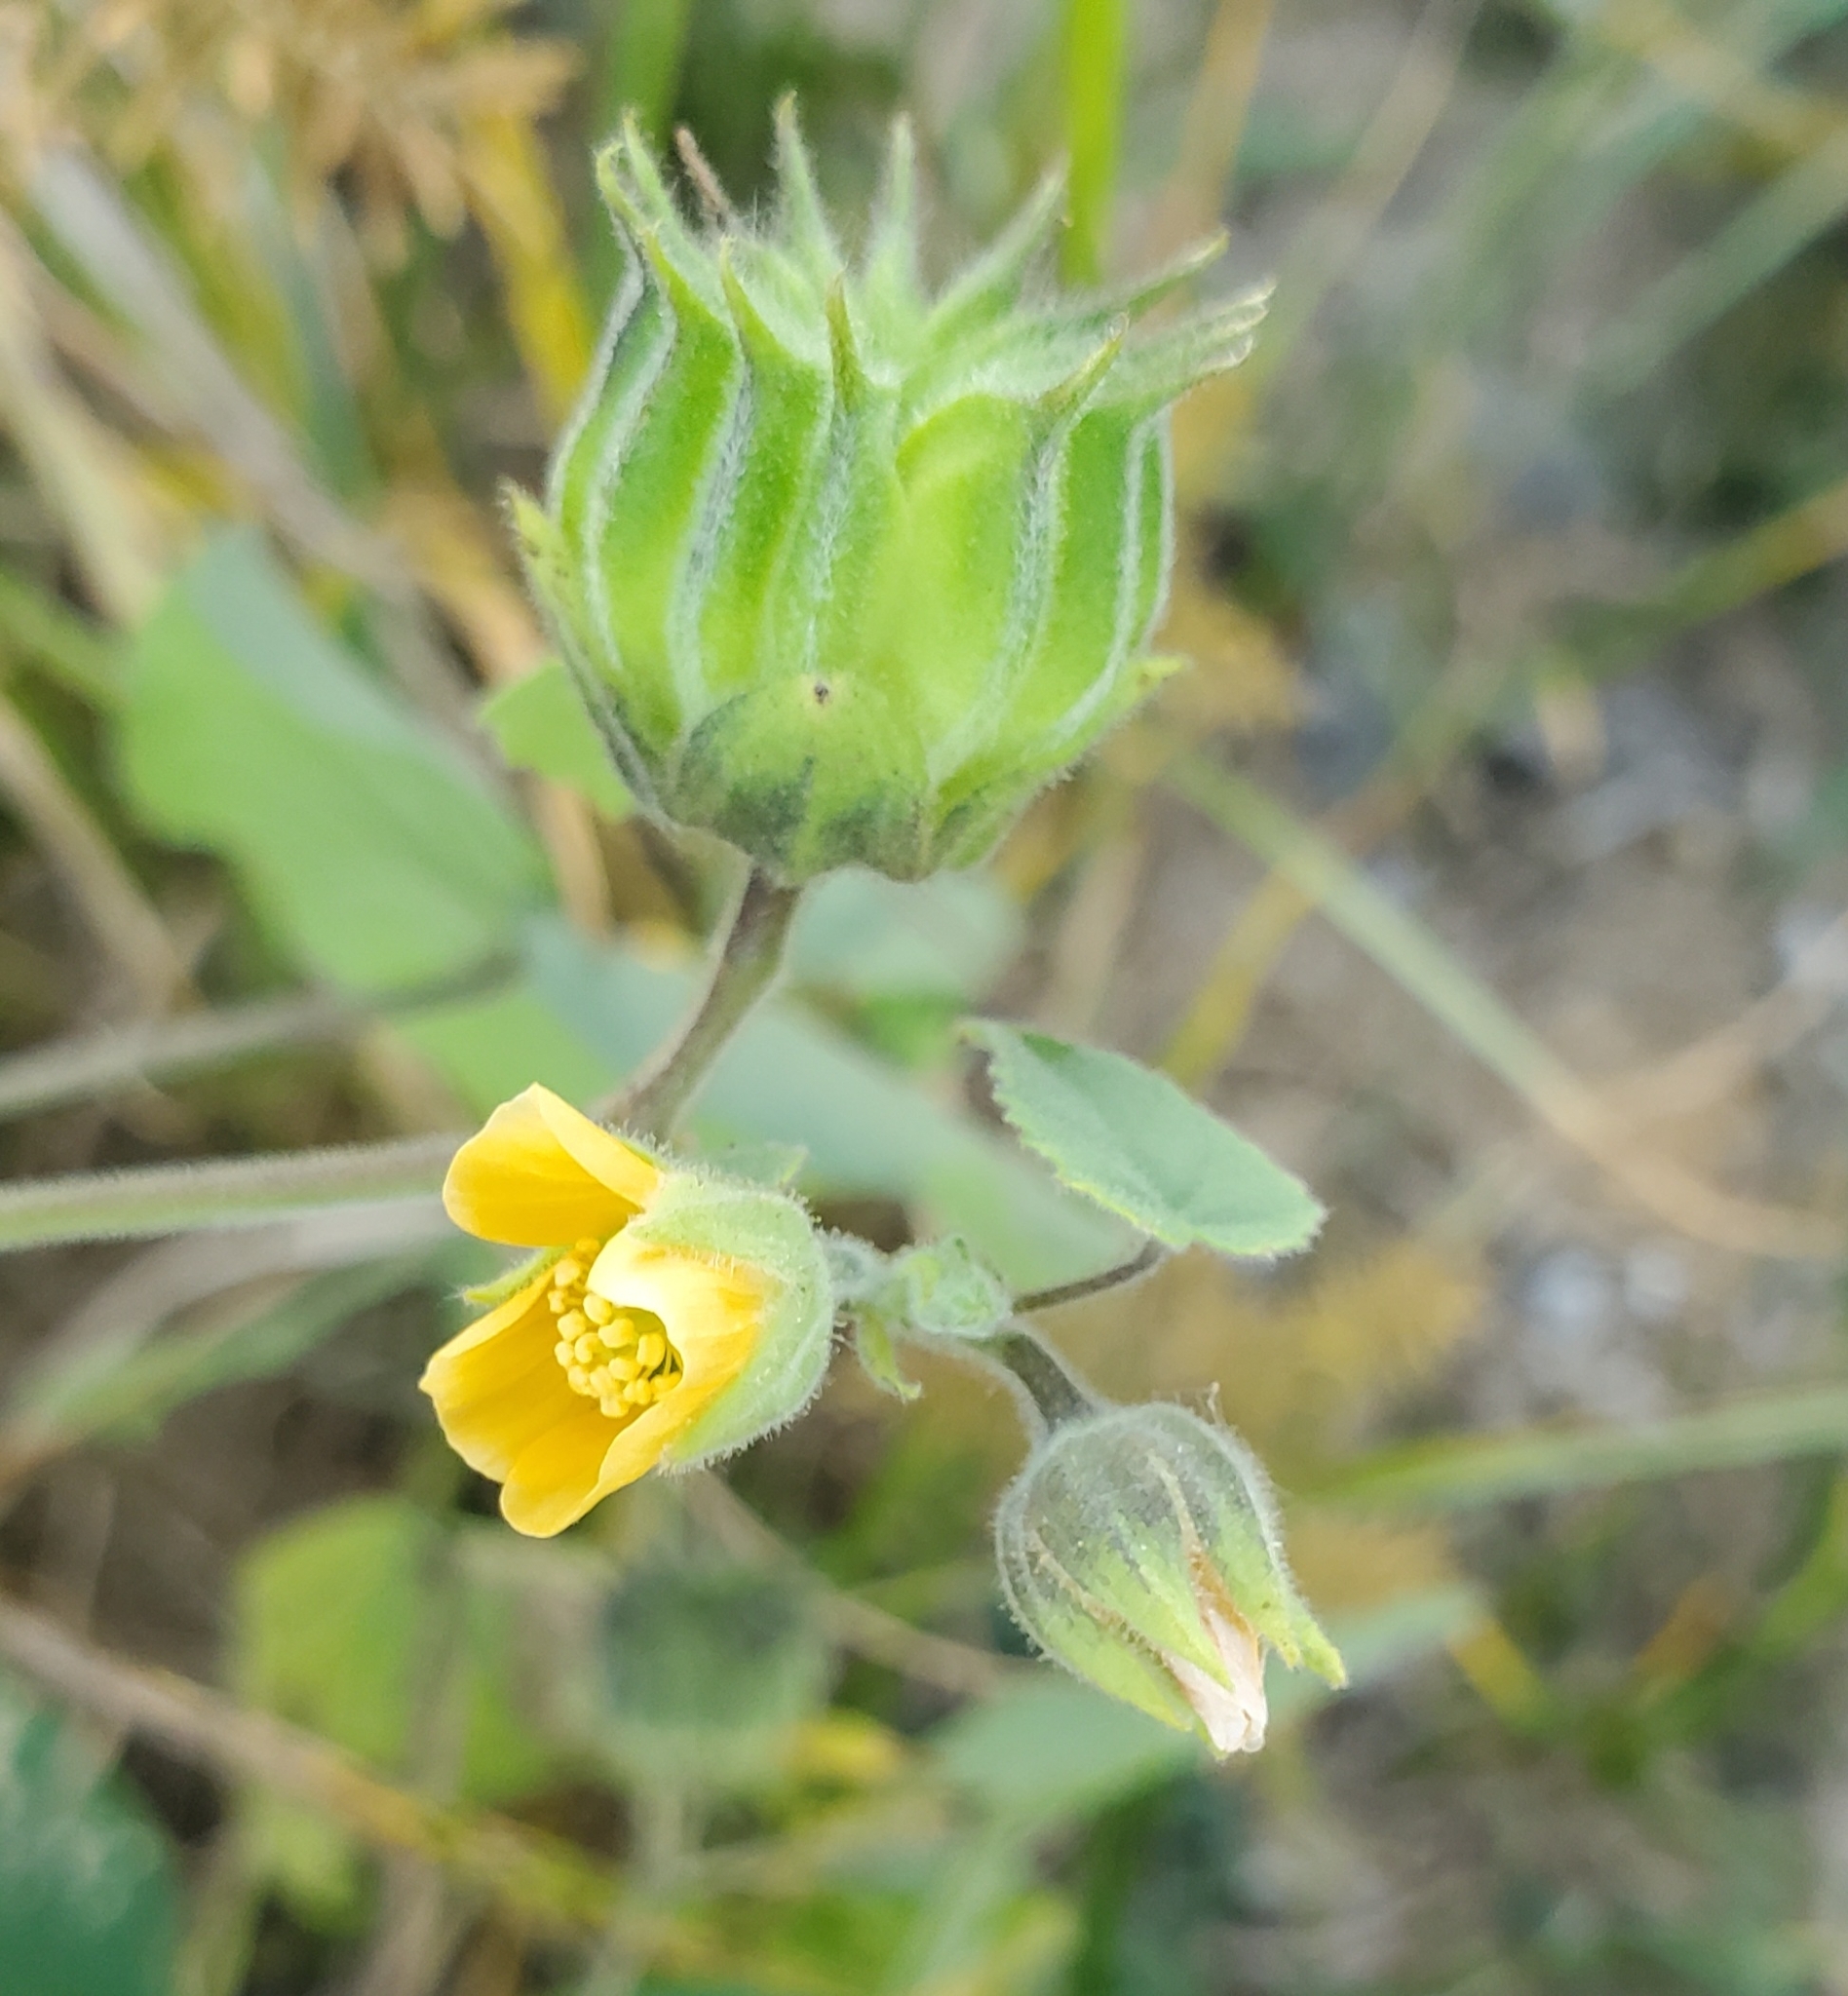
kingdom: Plantae
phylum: Tracheophyta
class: Magnoliopsida
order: Malvales
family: Malvaceae
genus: Abutilon
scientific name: Abutilon theophrasti
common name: Velvetleaf
